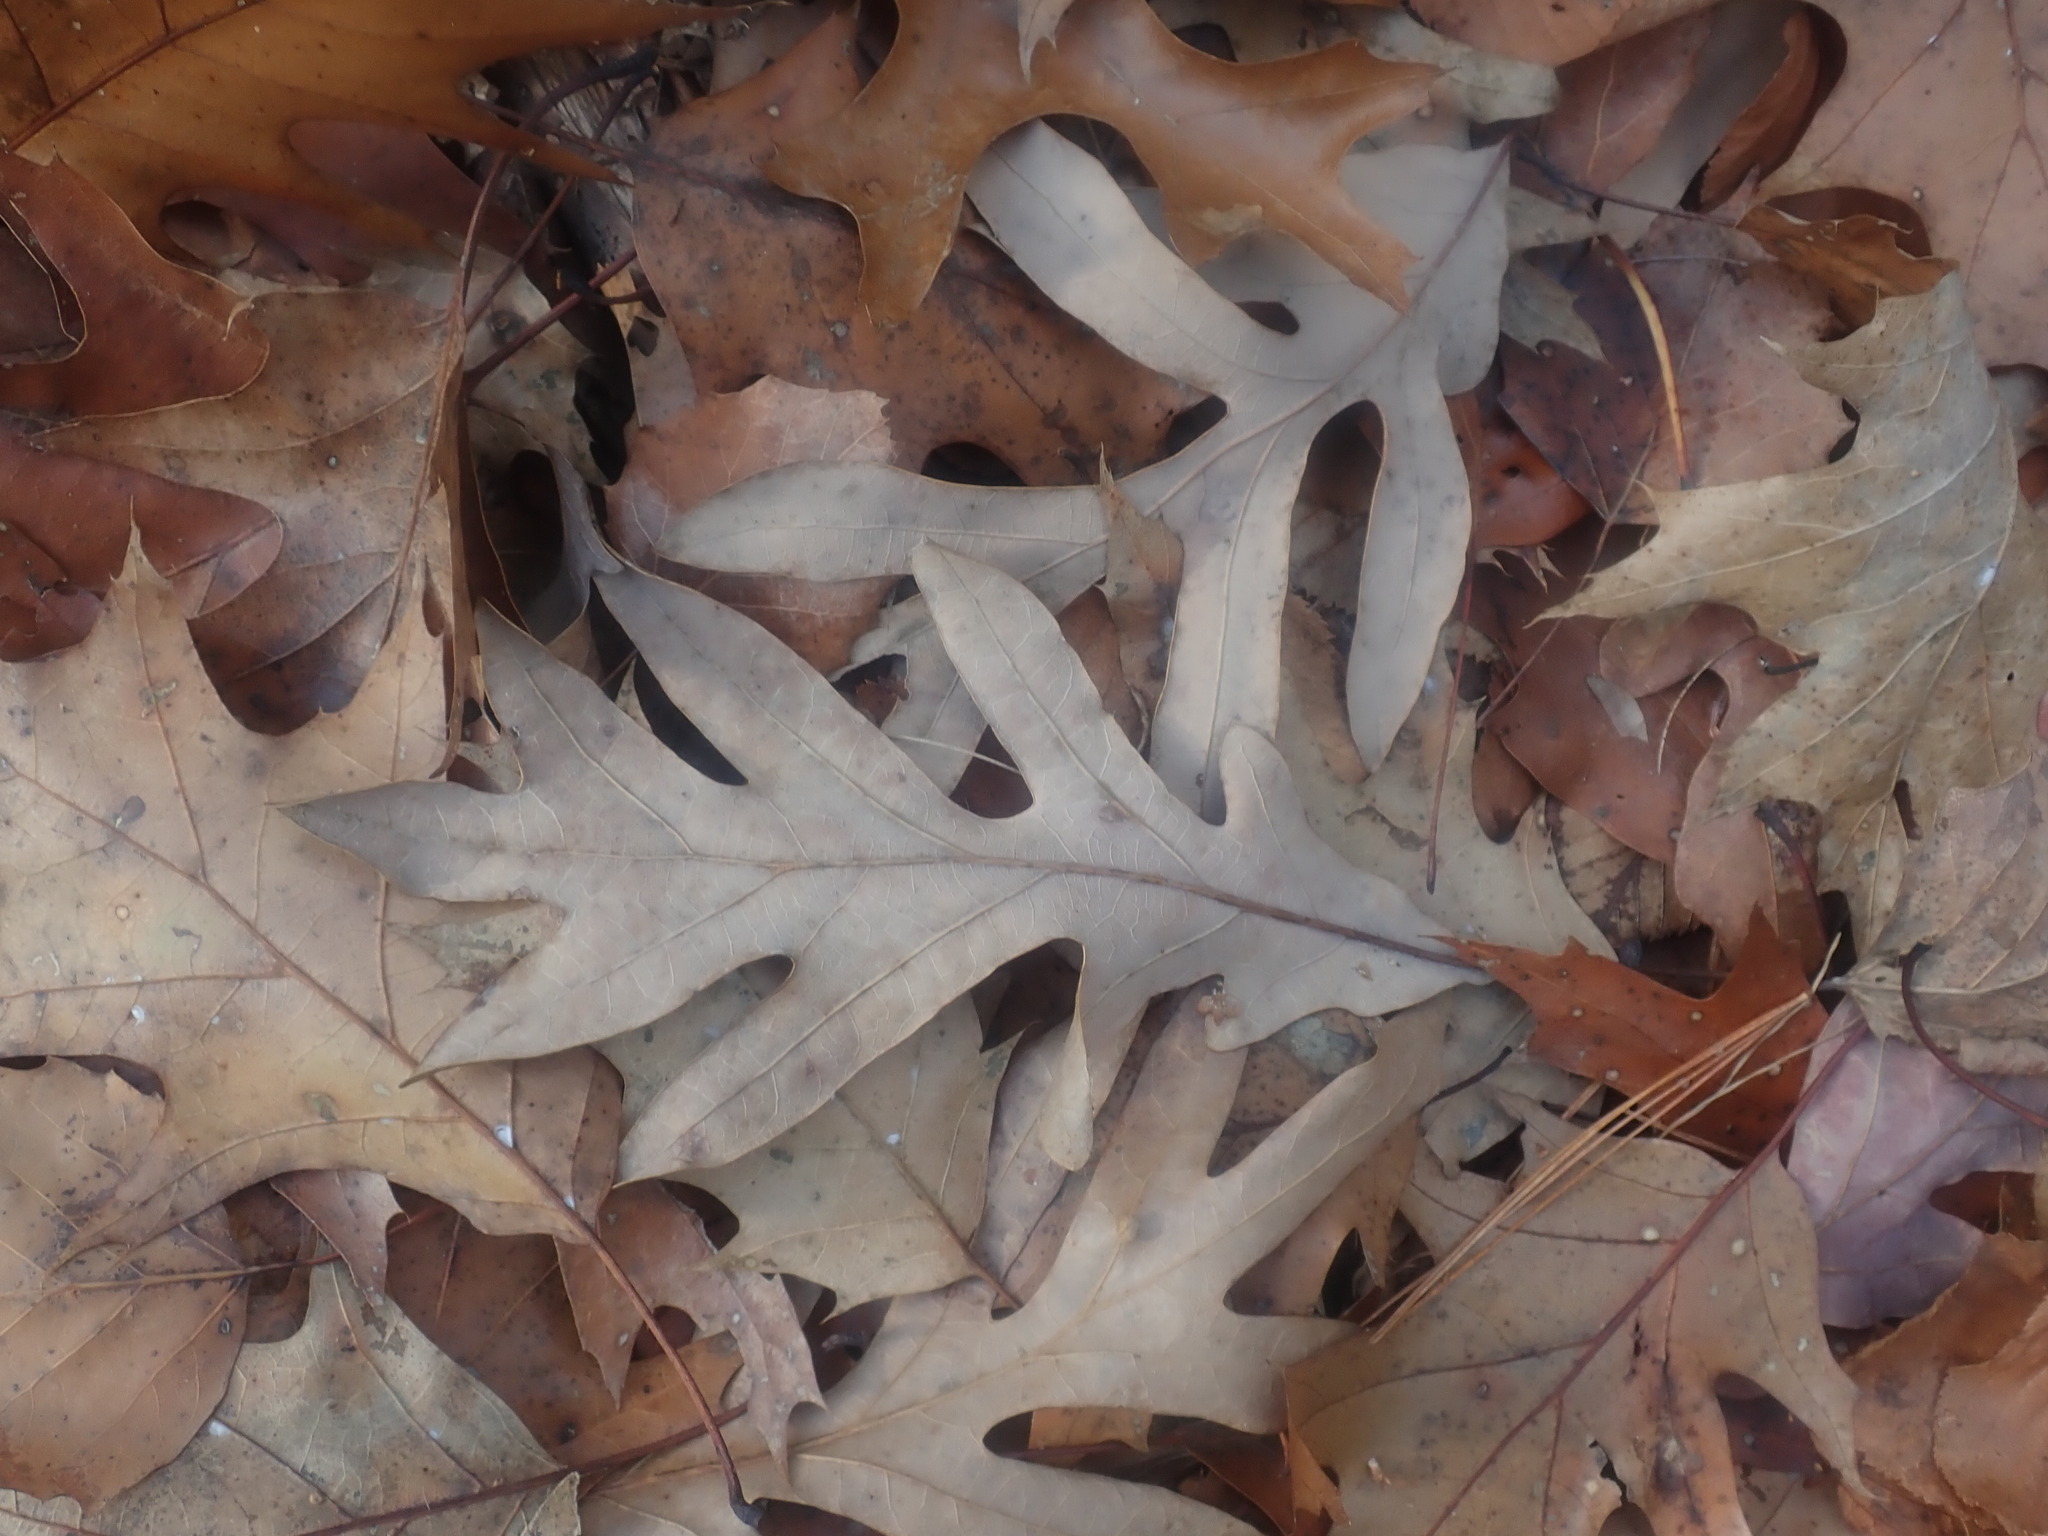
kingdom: Plantae
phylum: Tracheophyta
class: Magnoliopsida
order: Fagales
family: Fagaceae
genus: Quercus
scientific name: Quercus alba
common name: White oak
